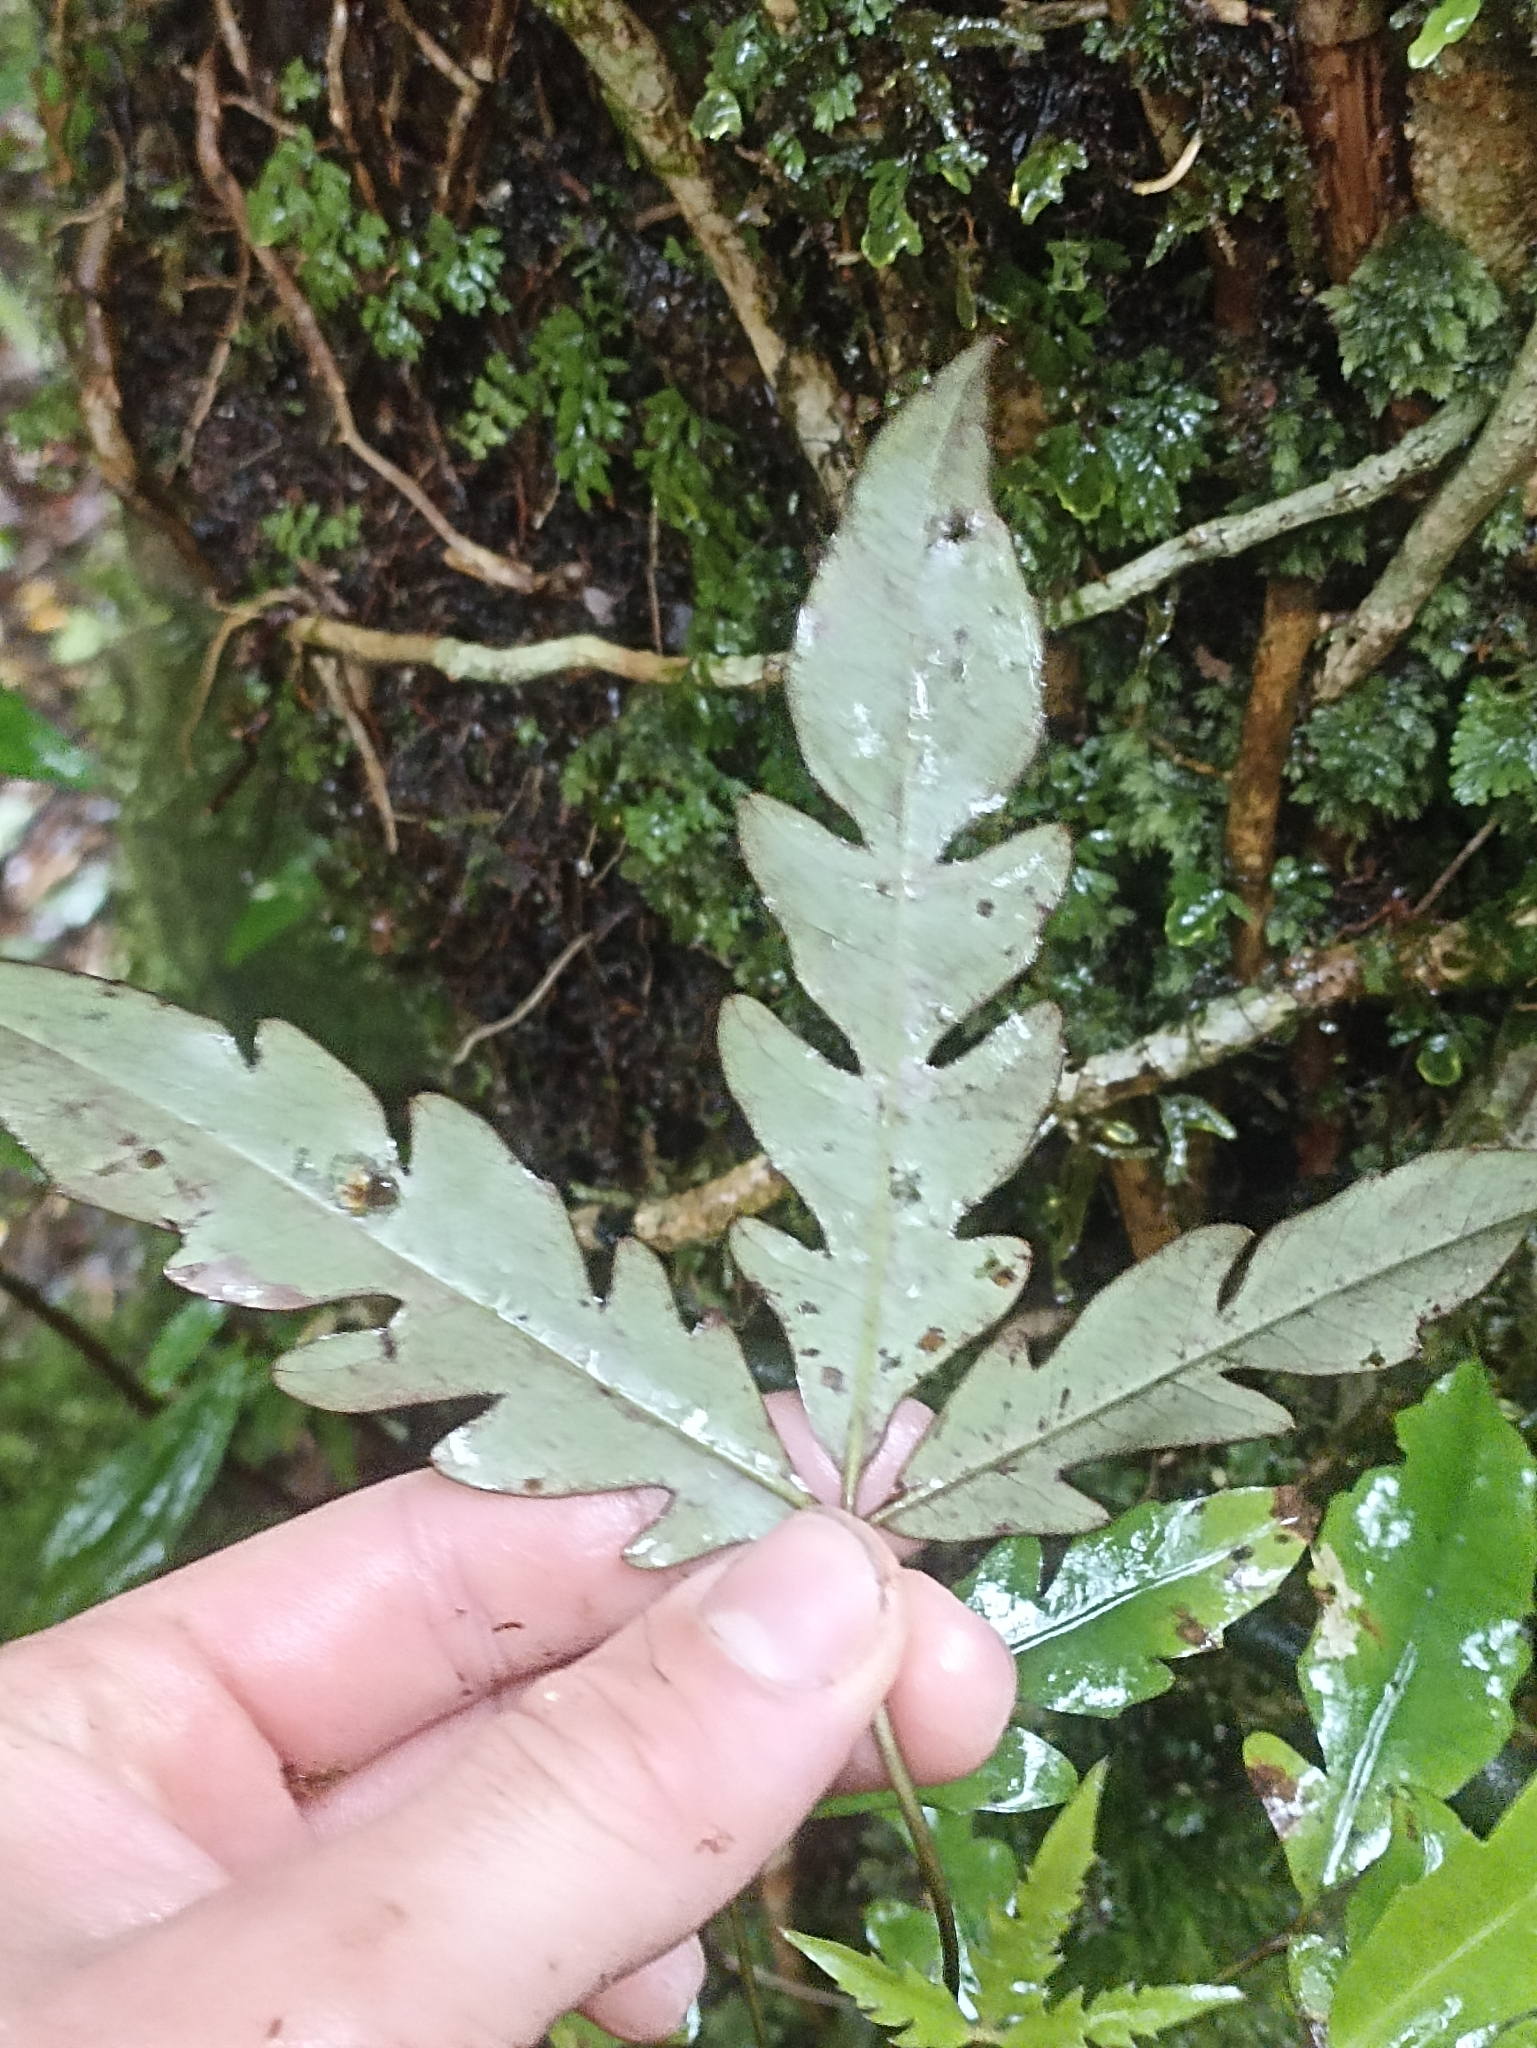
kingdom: Plantae
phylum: Tracheophyta
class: Magnoliopsida
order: Apiales
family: Araliaceae
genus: Raukaua
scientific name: Raukaua edgerleyi
